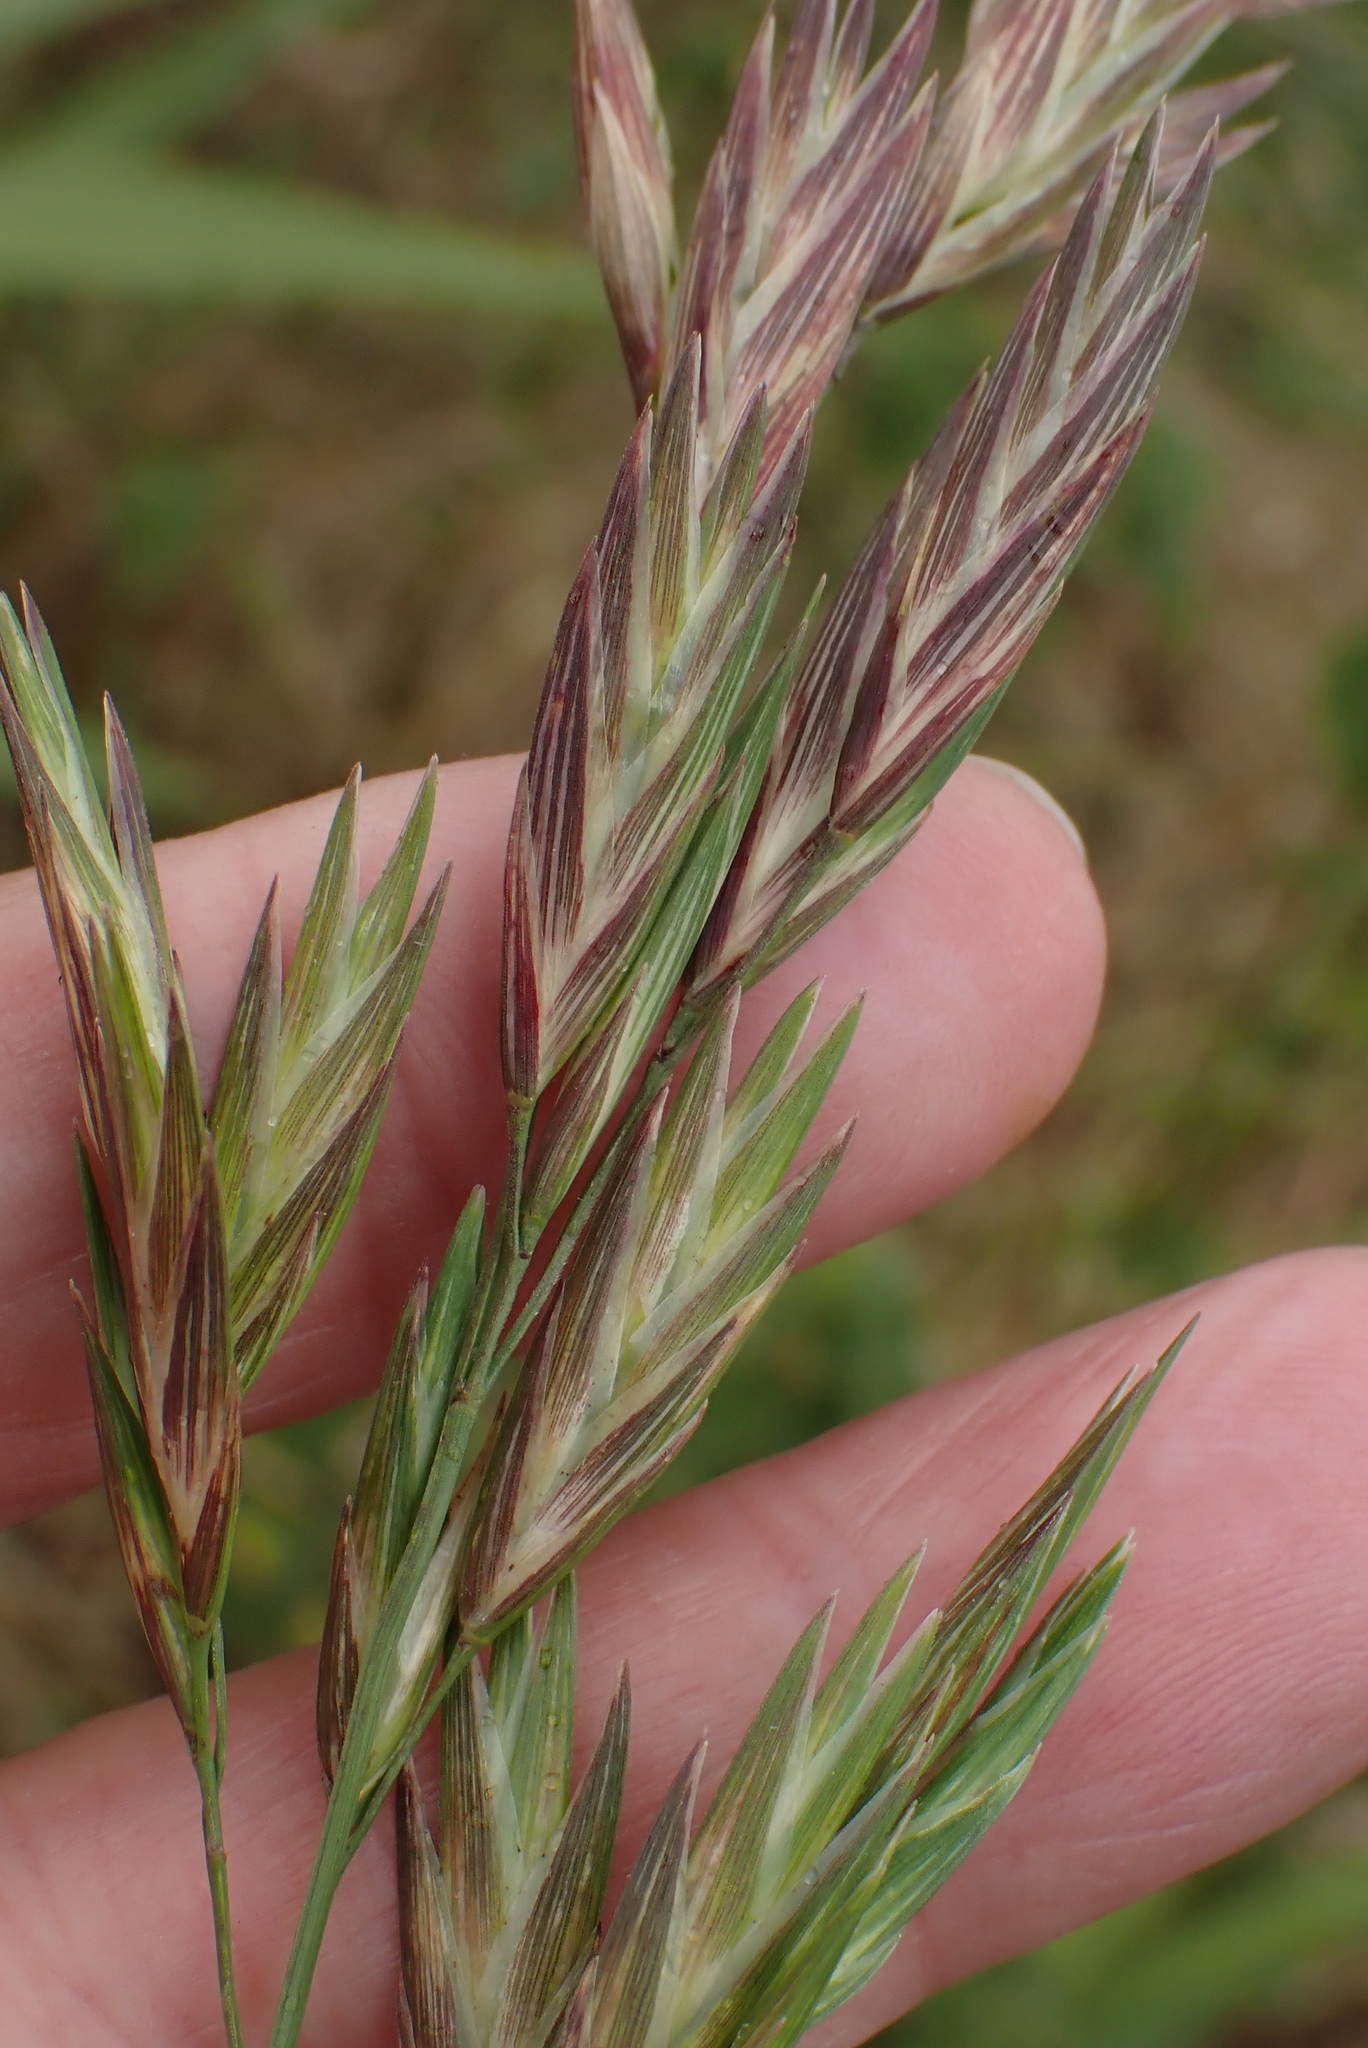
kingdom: Plantae
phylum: Tracheophyta
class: Liliopsida
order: Poales
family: Poaceae
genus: Bromus
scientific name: Bromus catharticus
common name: Rescuegrass
